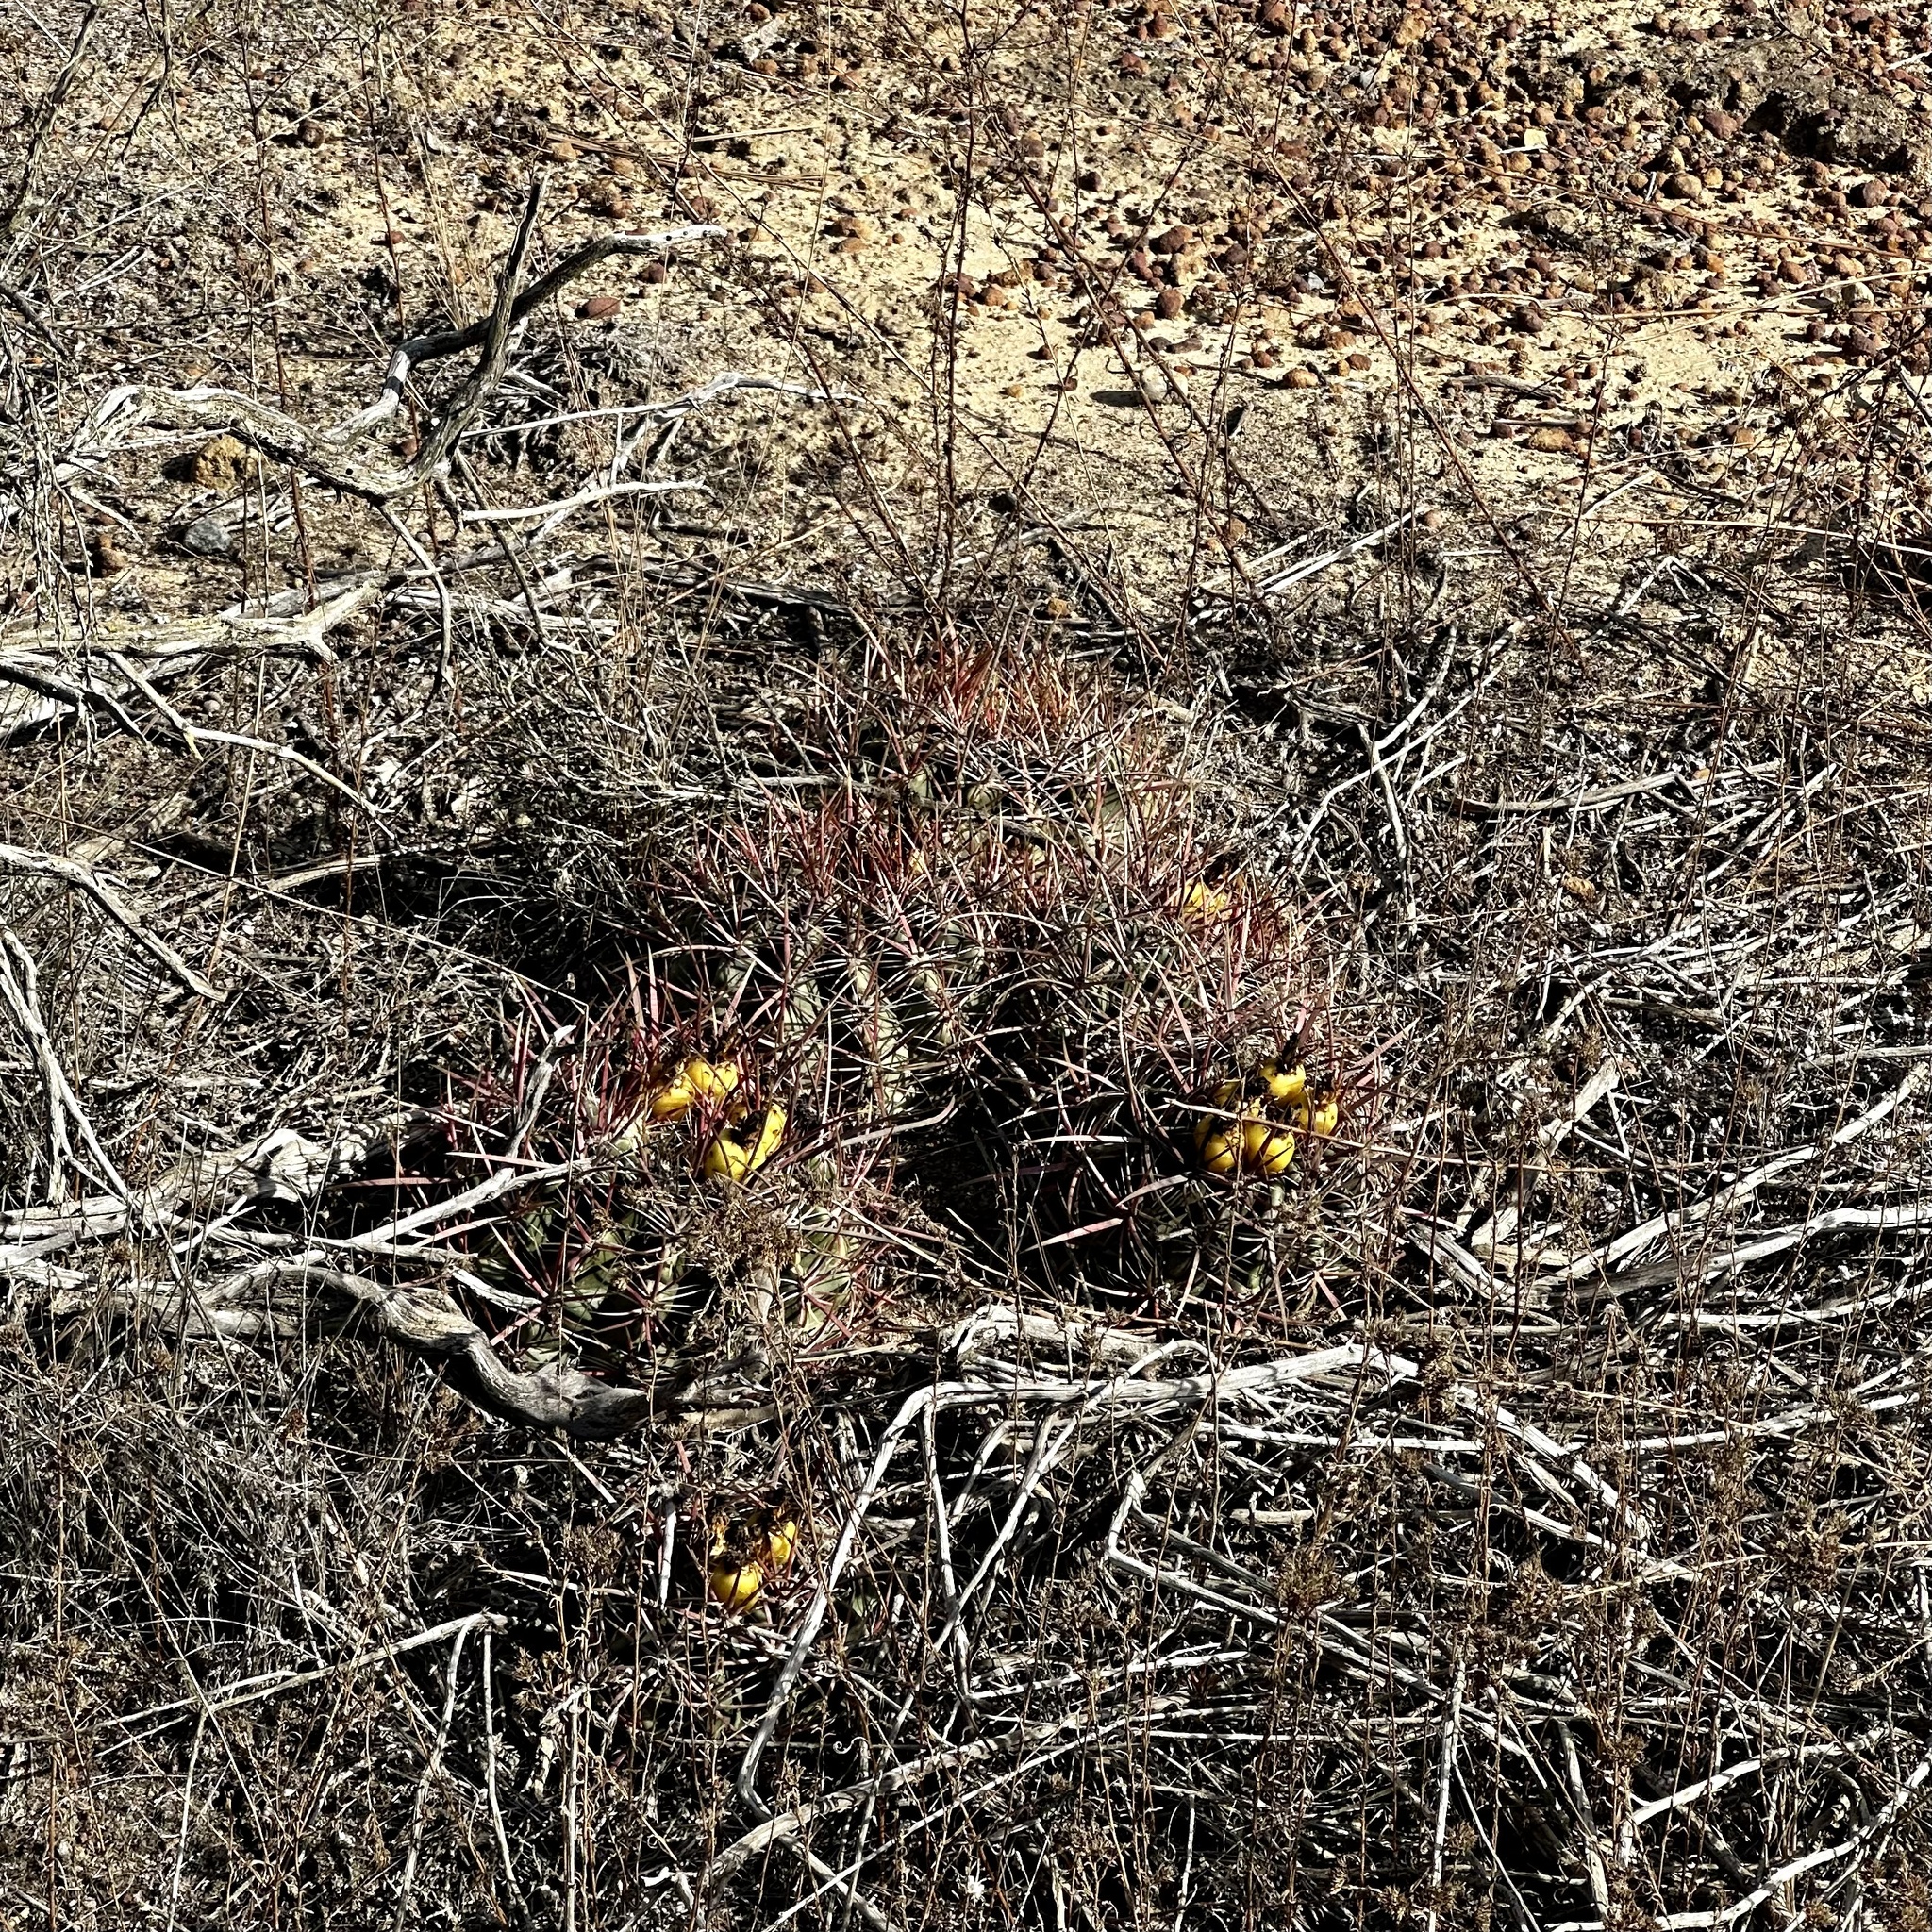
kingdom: Plantae
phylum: Tracheophyta
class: Magnoliopsida
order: Caryophyllales
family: Cactaceae
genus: Ferocactus
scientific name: Ferocactus viridescens
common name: San diego barrel cactus
